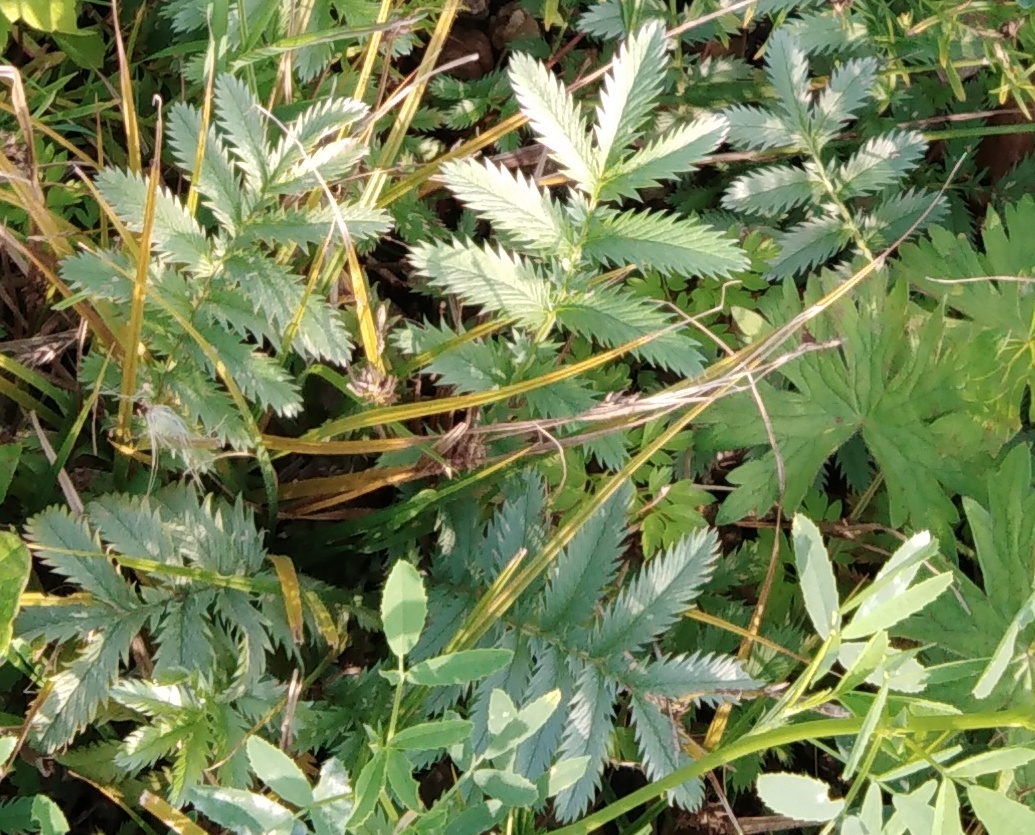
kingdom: Plantae
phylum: Tracheophyta
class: Magnoliopsida
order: Rosales
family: Rosaceae
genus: Argentina
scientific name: Argentina anserina
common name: Common silverweed
